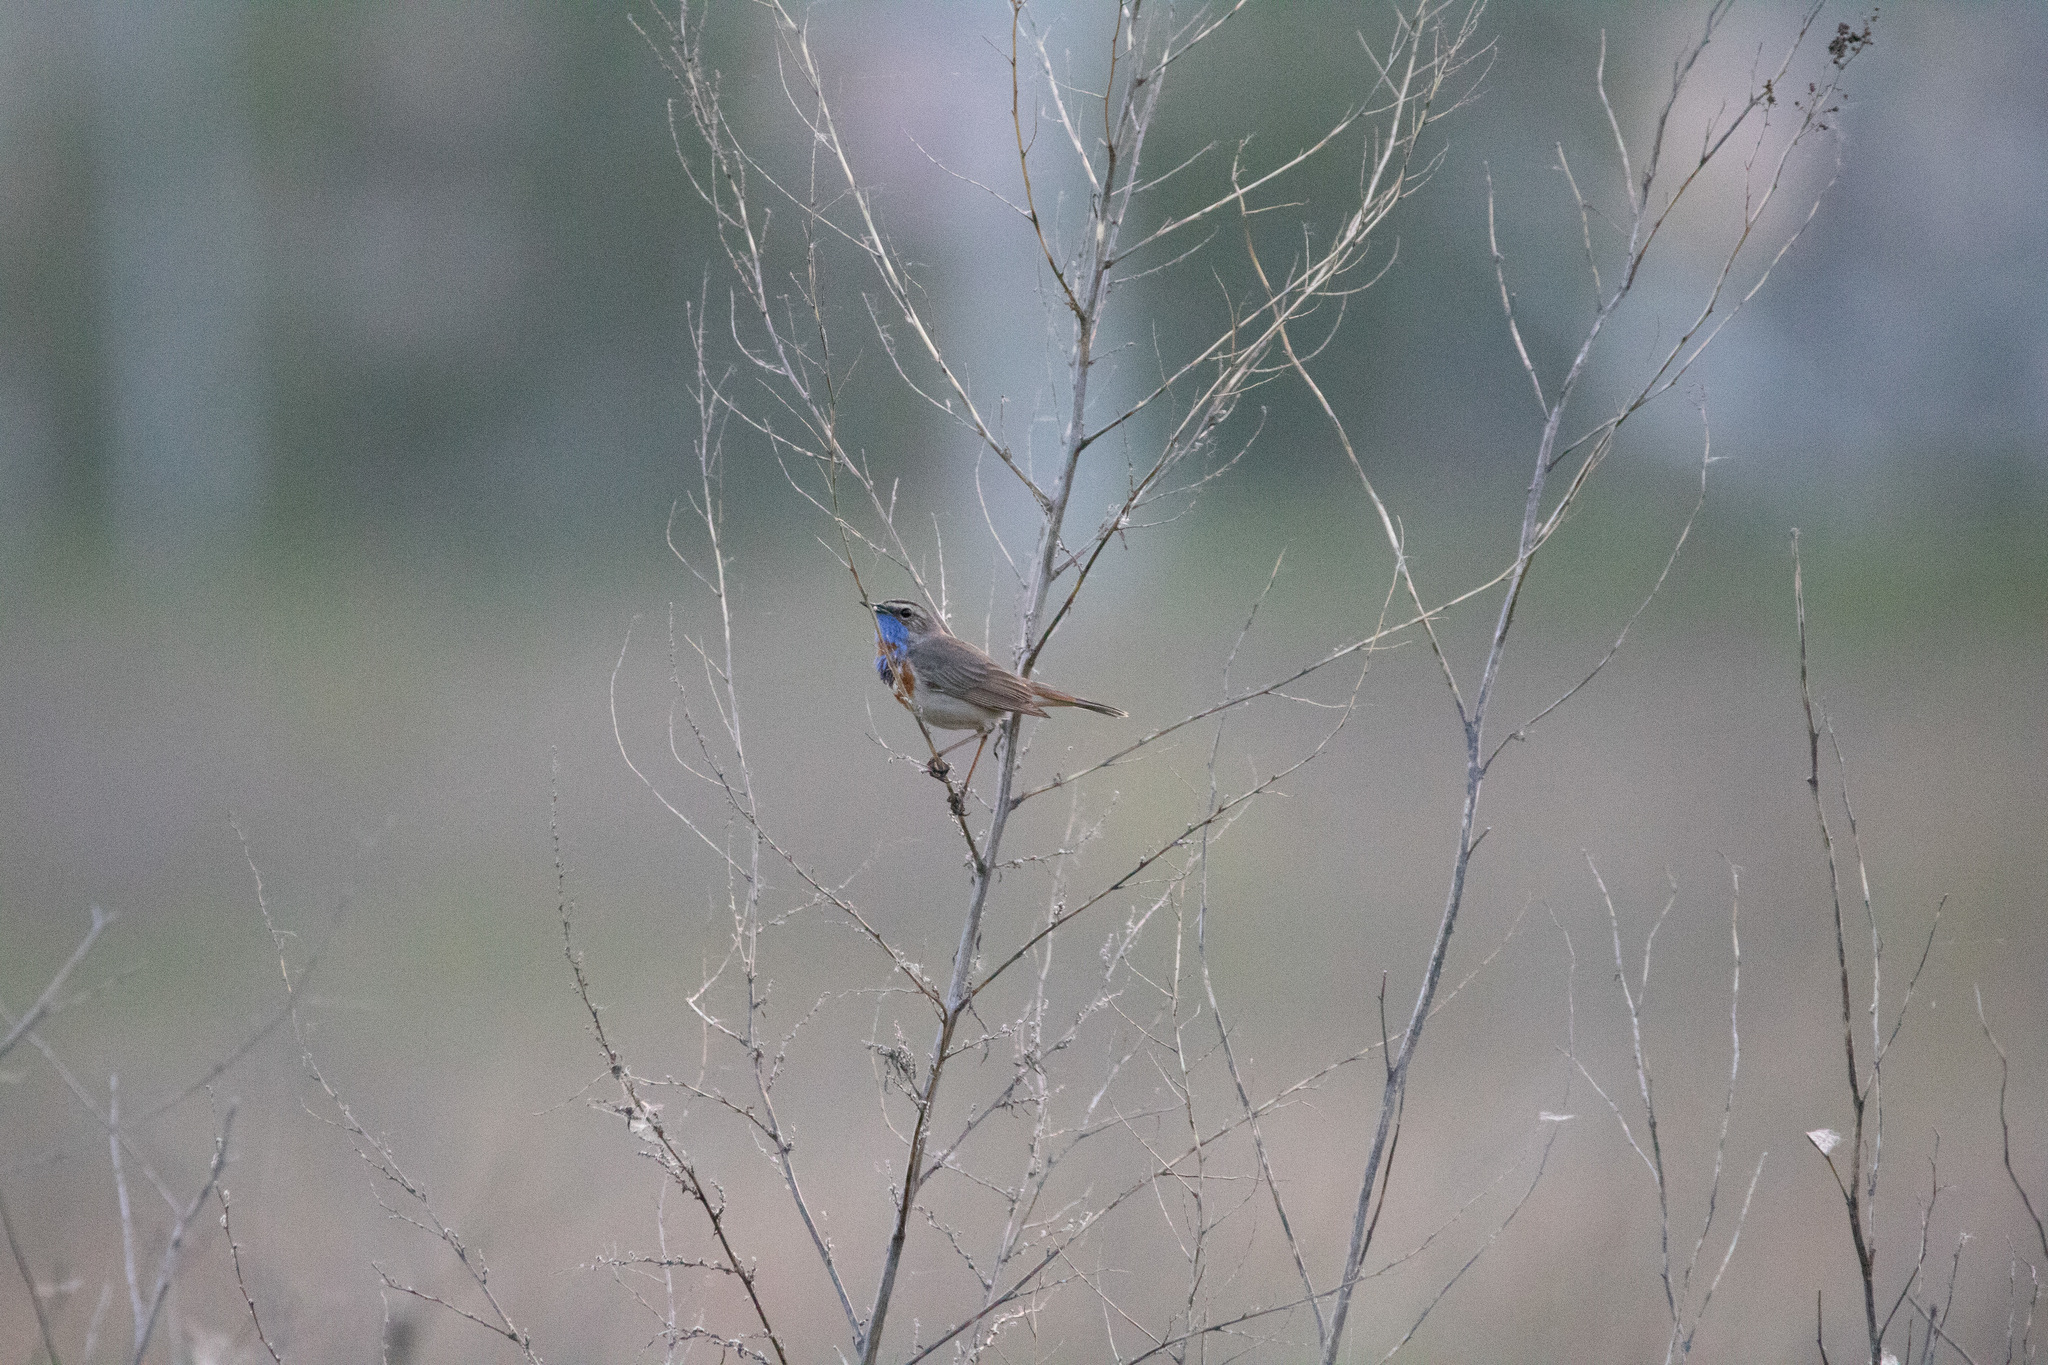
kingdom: Animalia
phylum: Chordata
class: Aves
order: Passeriformes
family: Muscicapidae
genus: Luscinia
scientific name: Luscinia svecica
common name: Bluethroat
